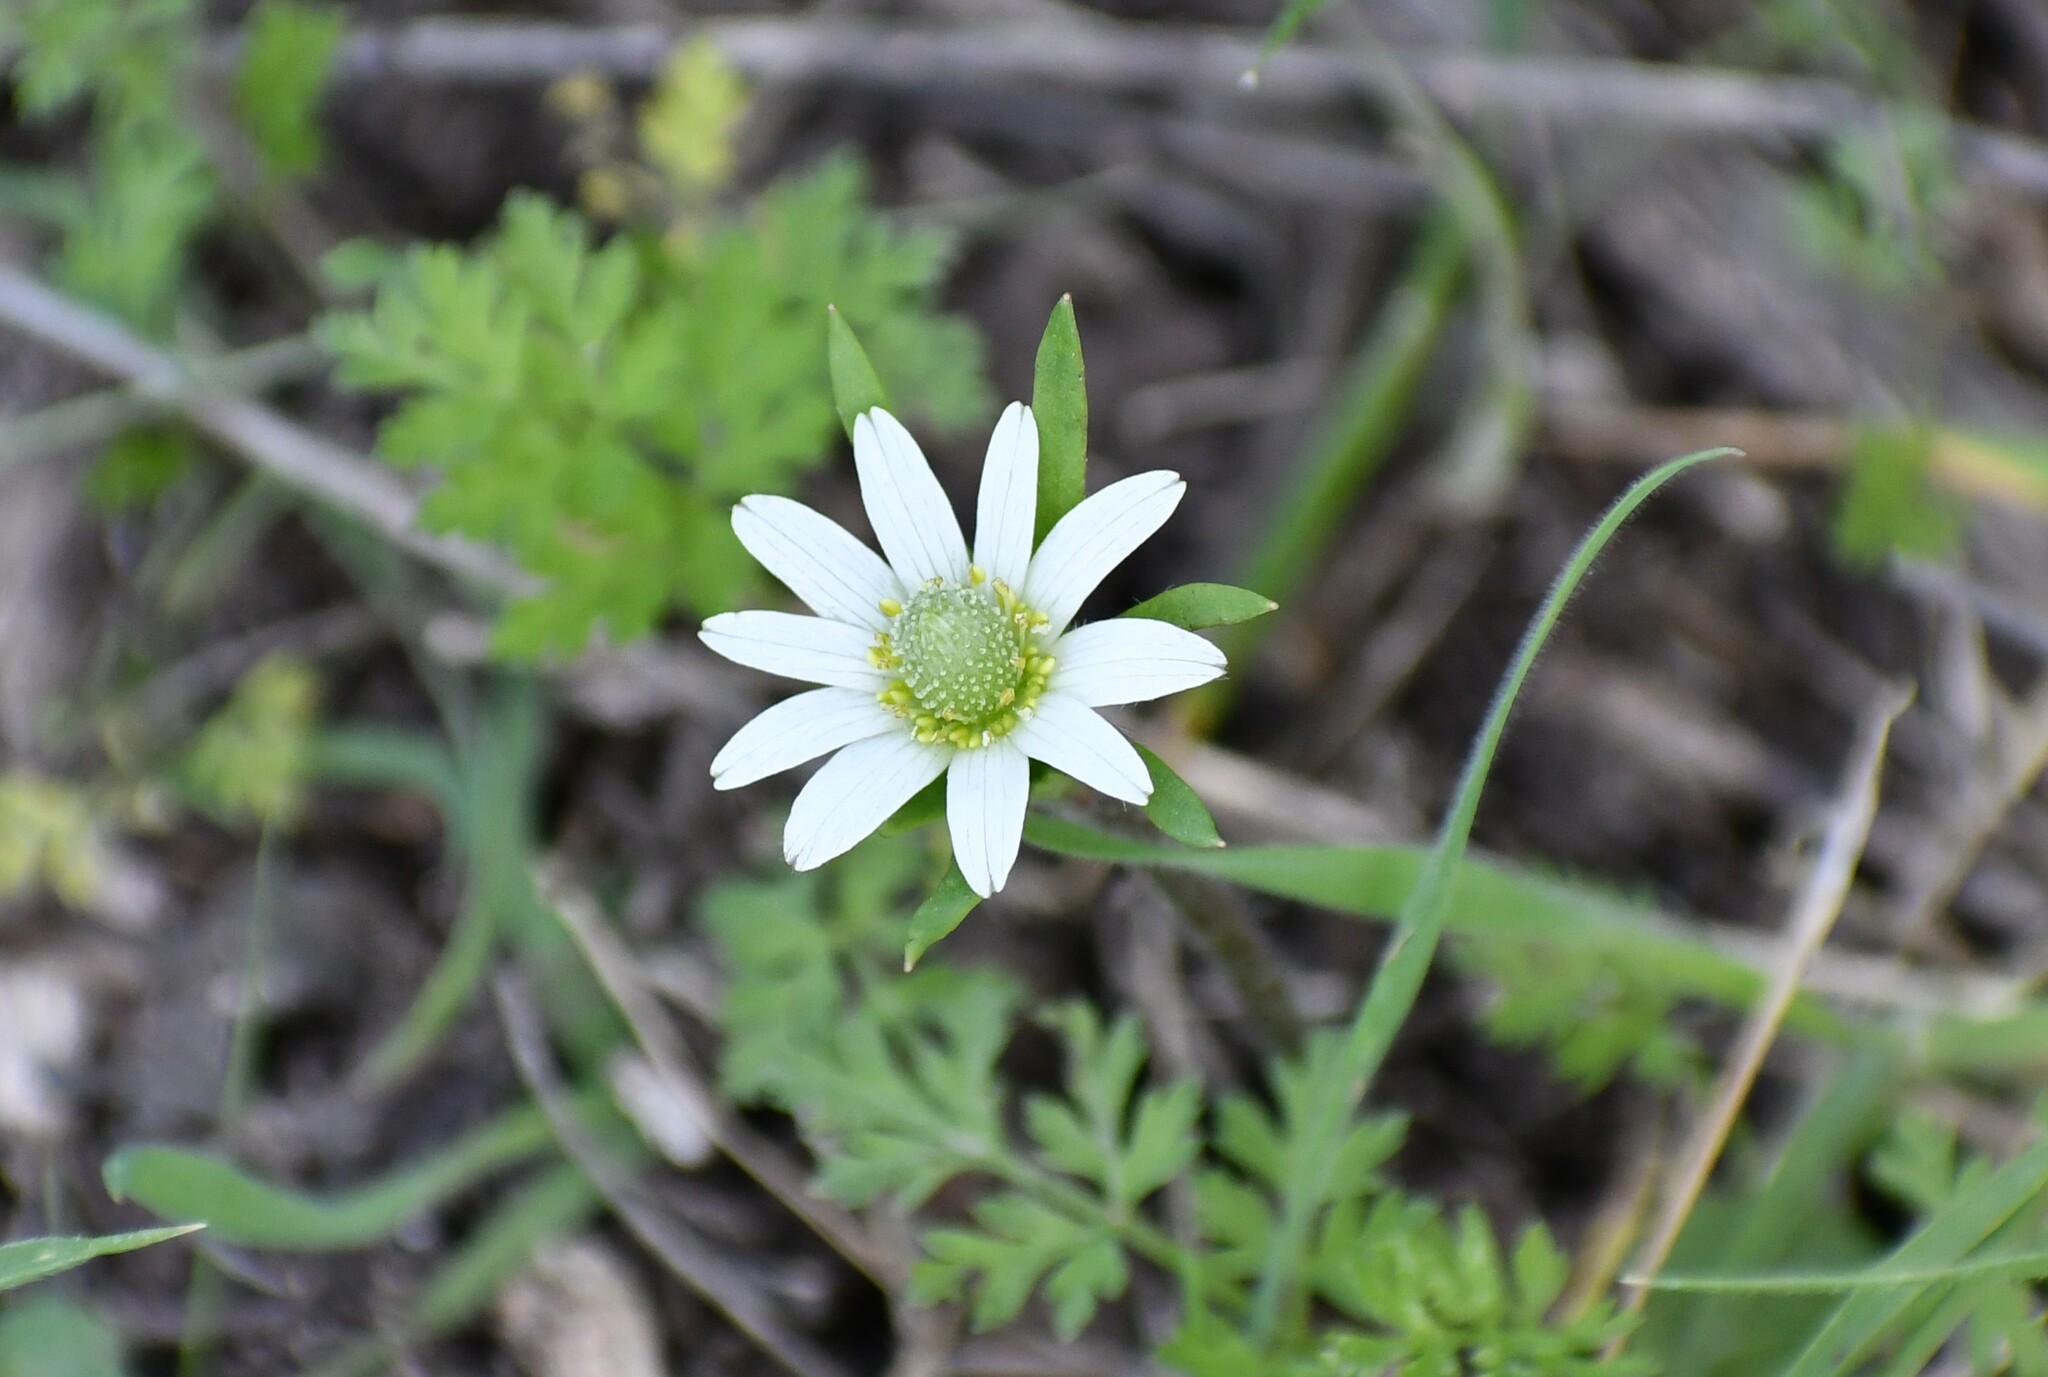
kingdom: Plantae
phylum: Tracheophyta
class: Magnoliopsida
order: Ranunculales
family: Ranunculaceae
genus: Anemone
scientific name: Anemone berlandieri
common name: Ten-petal anemone
